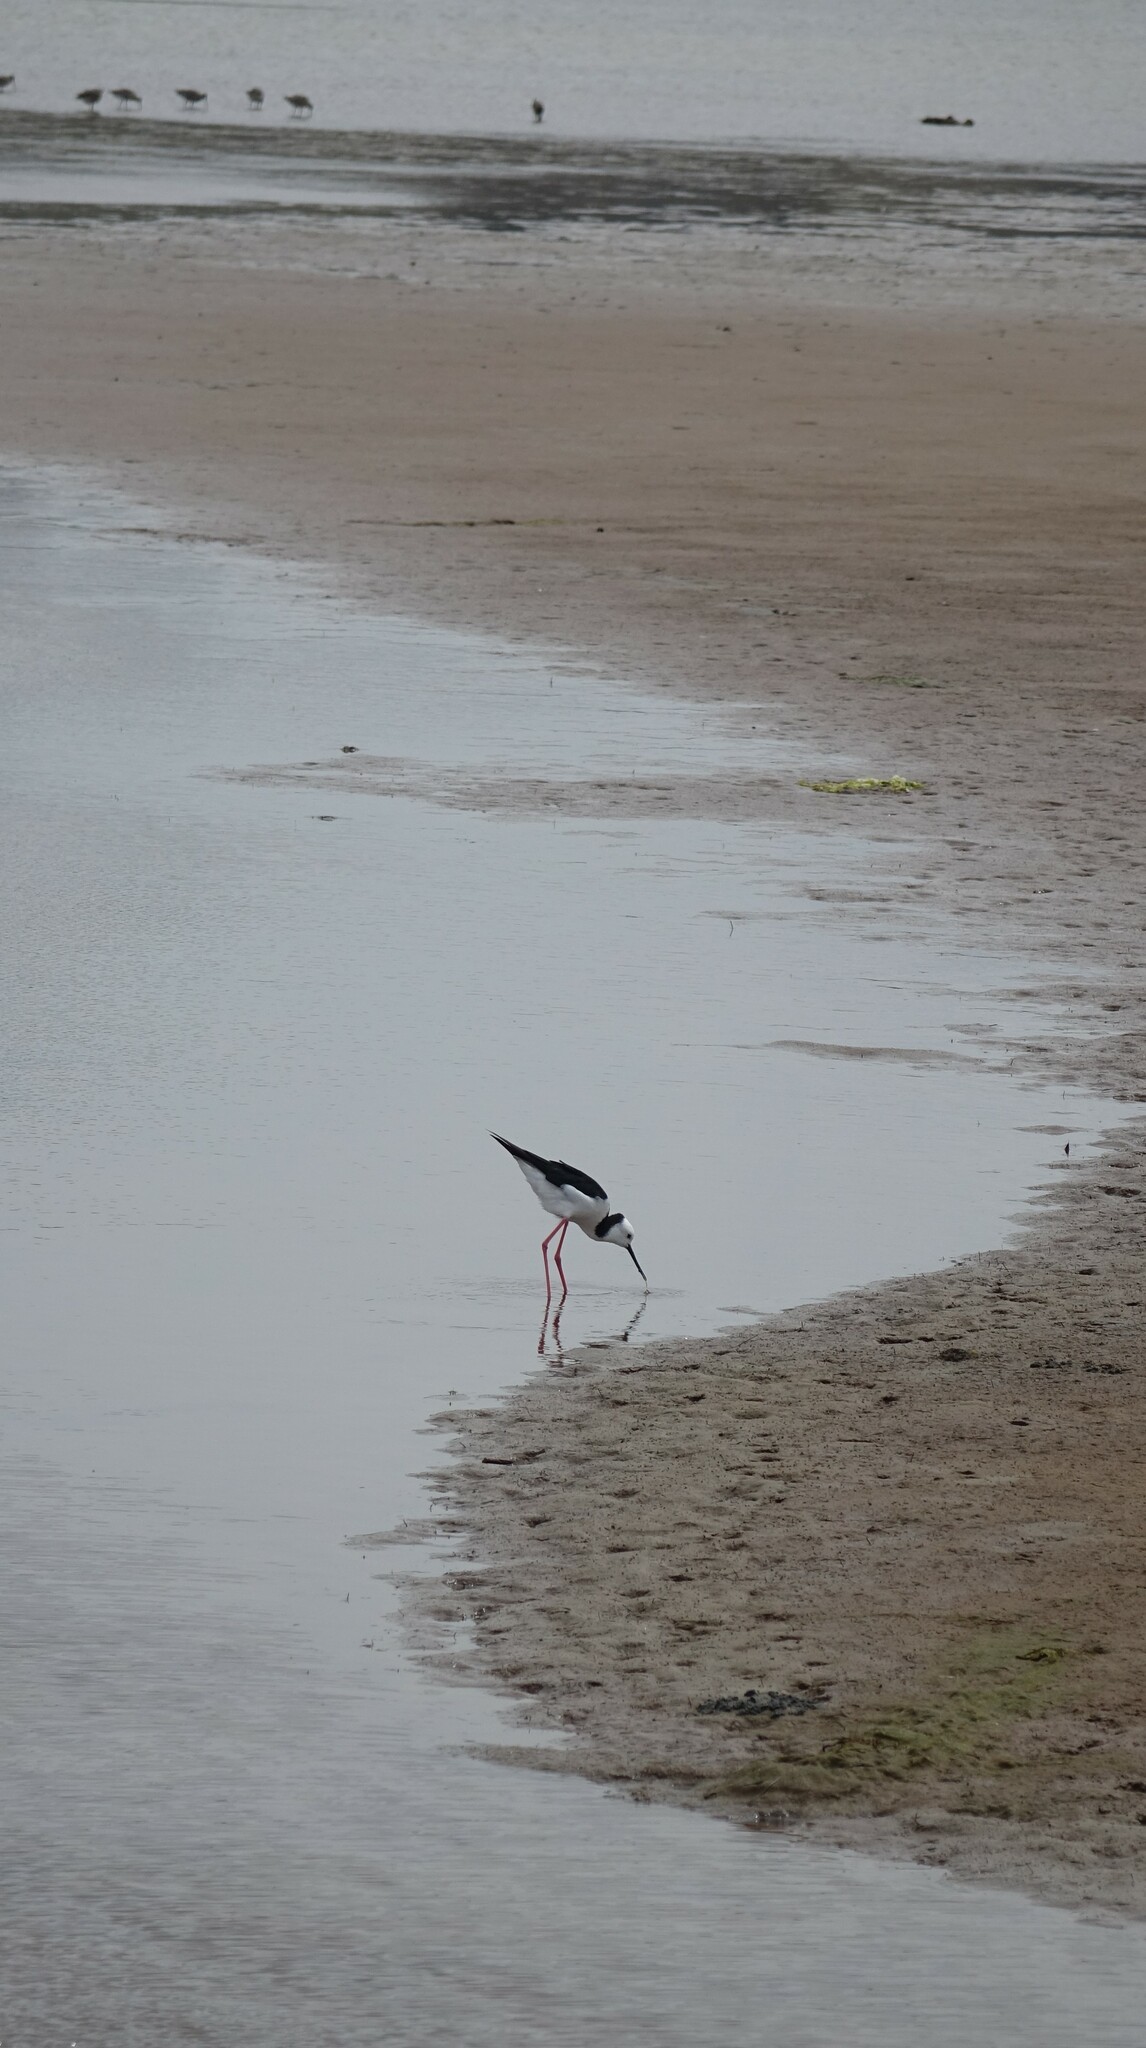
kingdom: Animalia
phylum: Chordata
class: Aves
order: Charadriiformes
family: Recurvirostridae
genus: Himantopus
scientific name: Himantopus leucocephalus
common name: White-headed stilt
